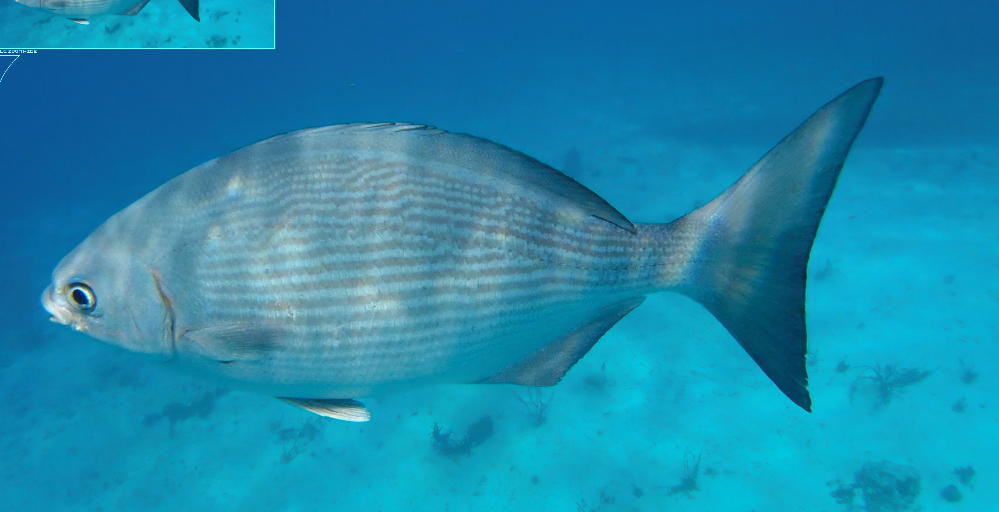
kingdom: Animalia
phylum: Chordata
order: Perciformes
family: Kyphosidae
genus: Kyphosus
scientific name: Kyphosus vaigiensis
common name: Brassy chub
